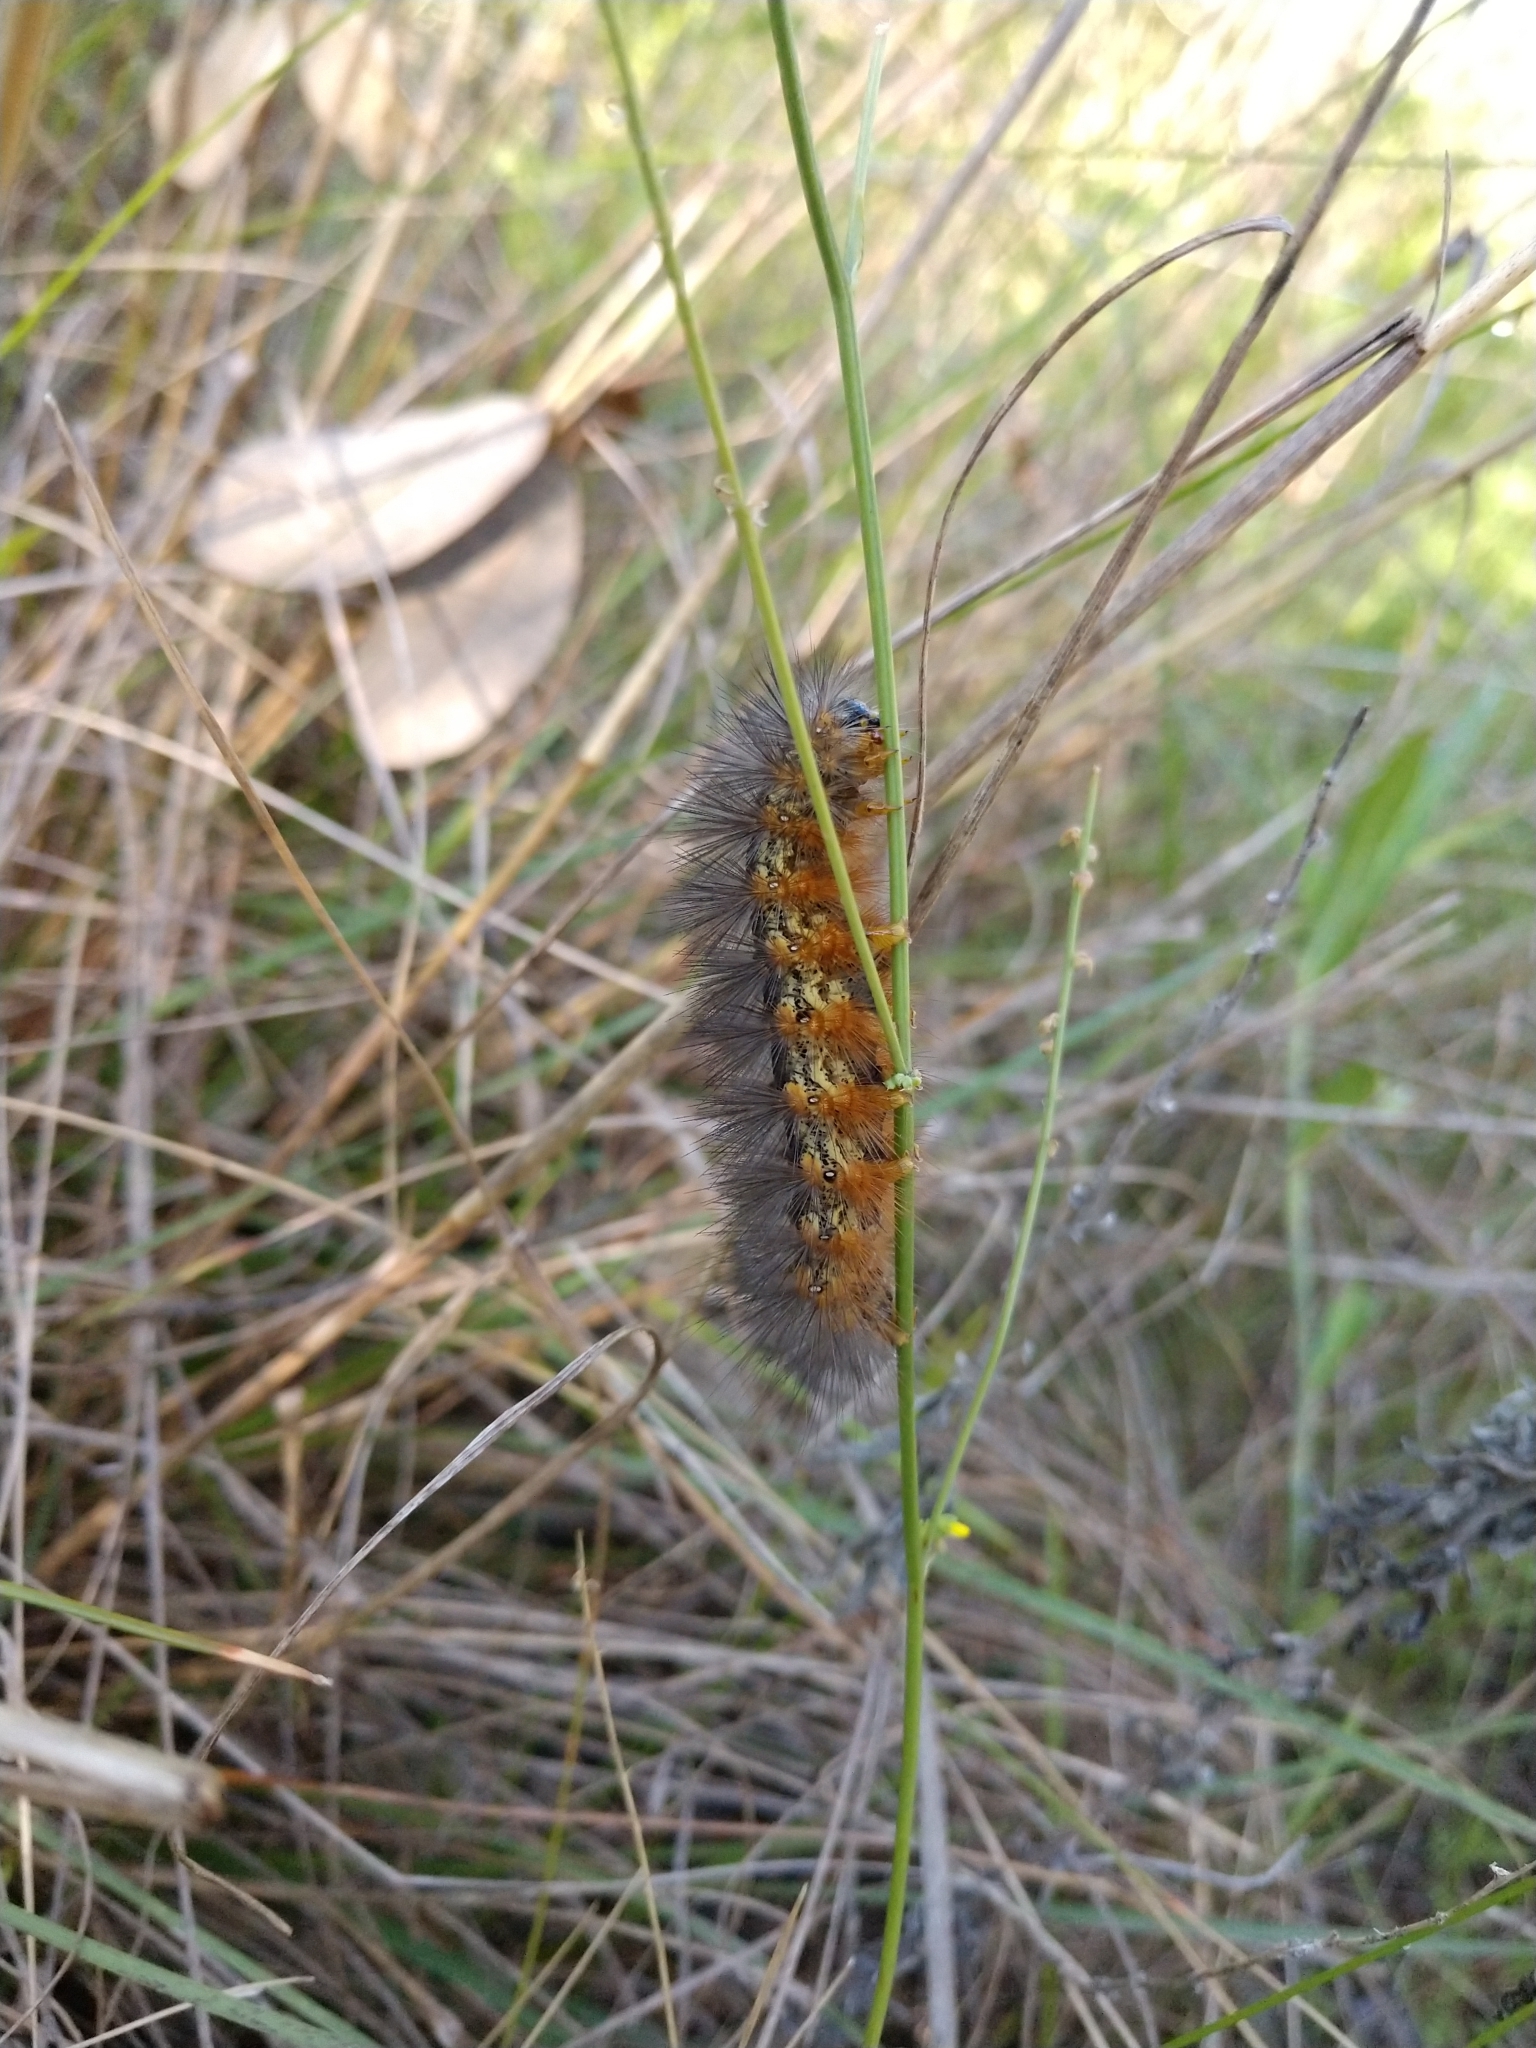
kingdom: Animalia
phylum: Arthropoda
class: Insecta
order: Lepidoptera
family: Erebidae
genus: Estigmene
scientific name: Estigmene acrea
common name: Salt marsh moth
